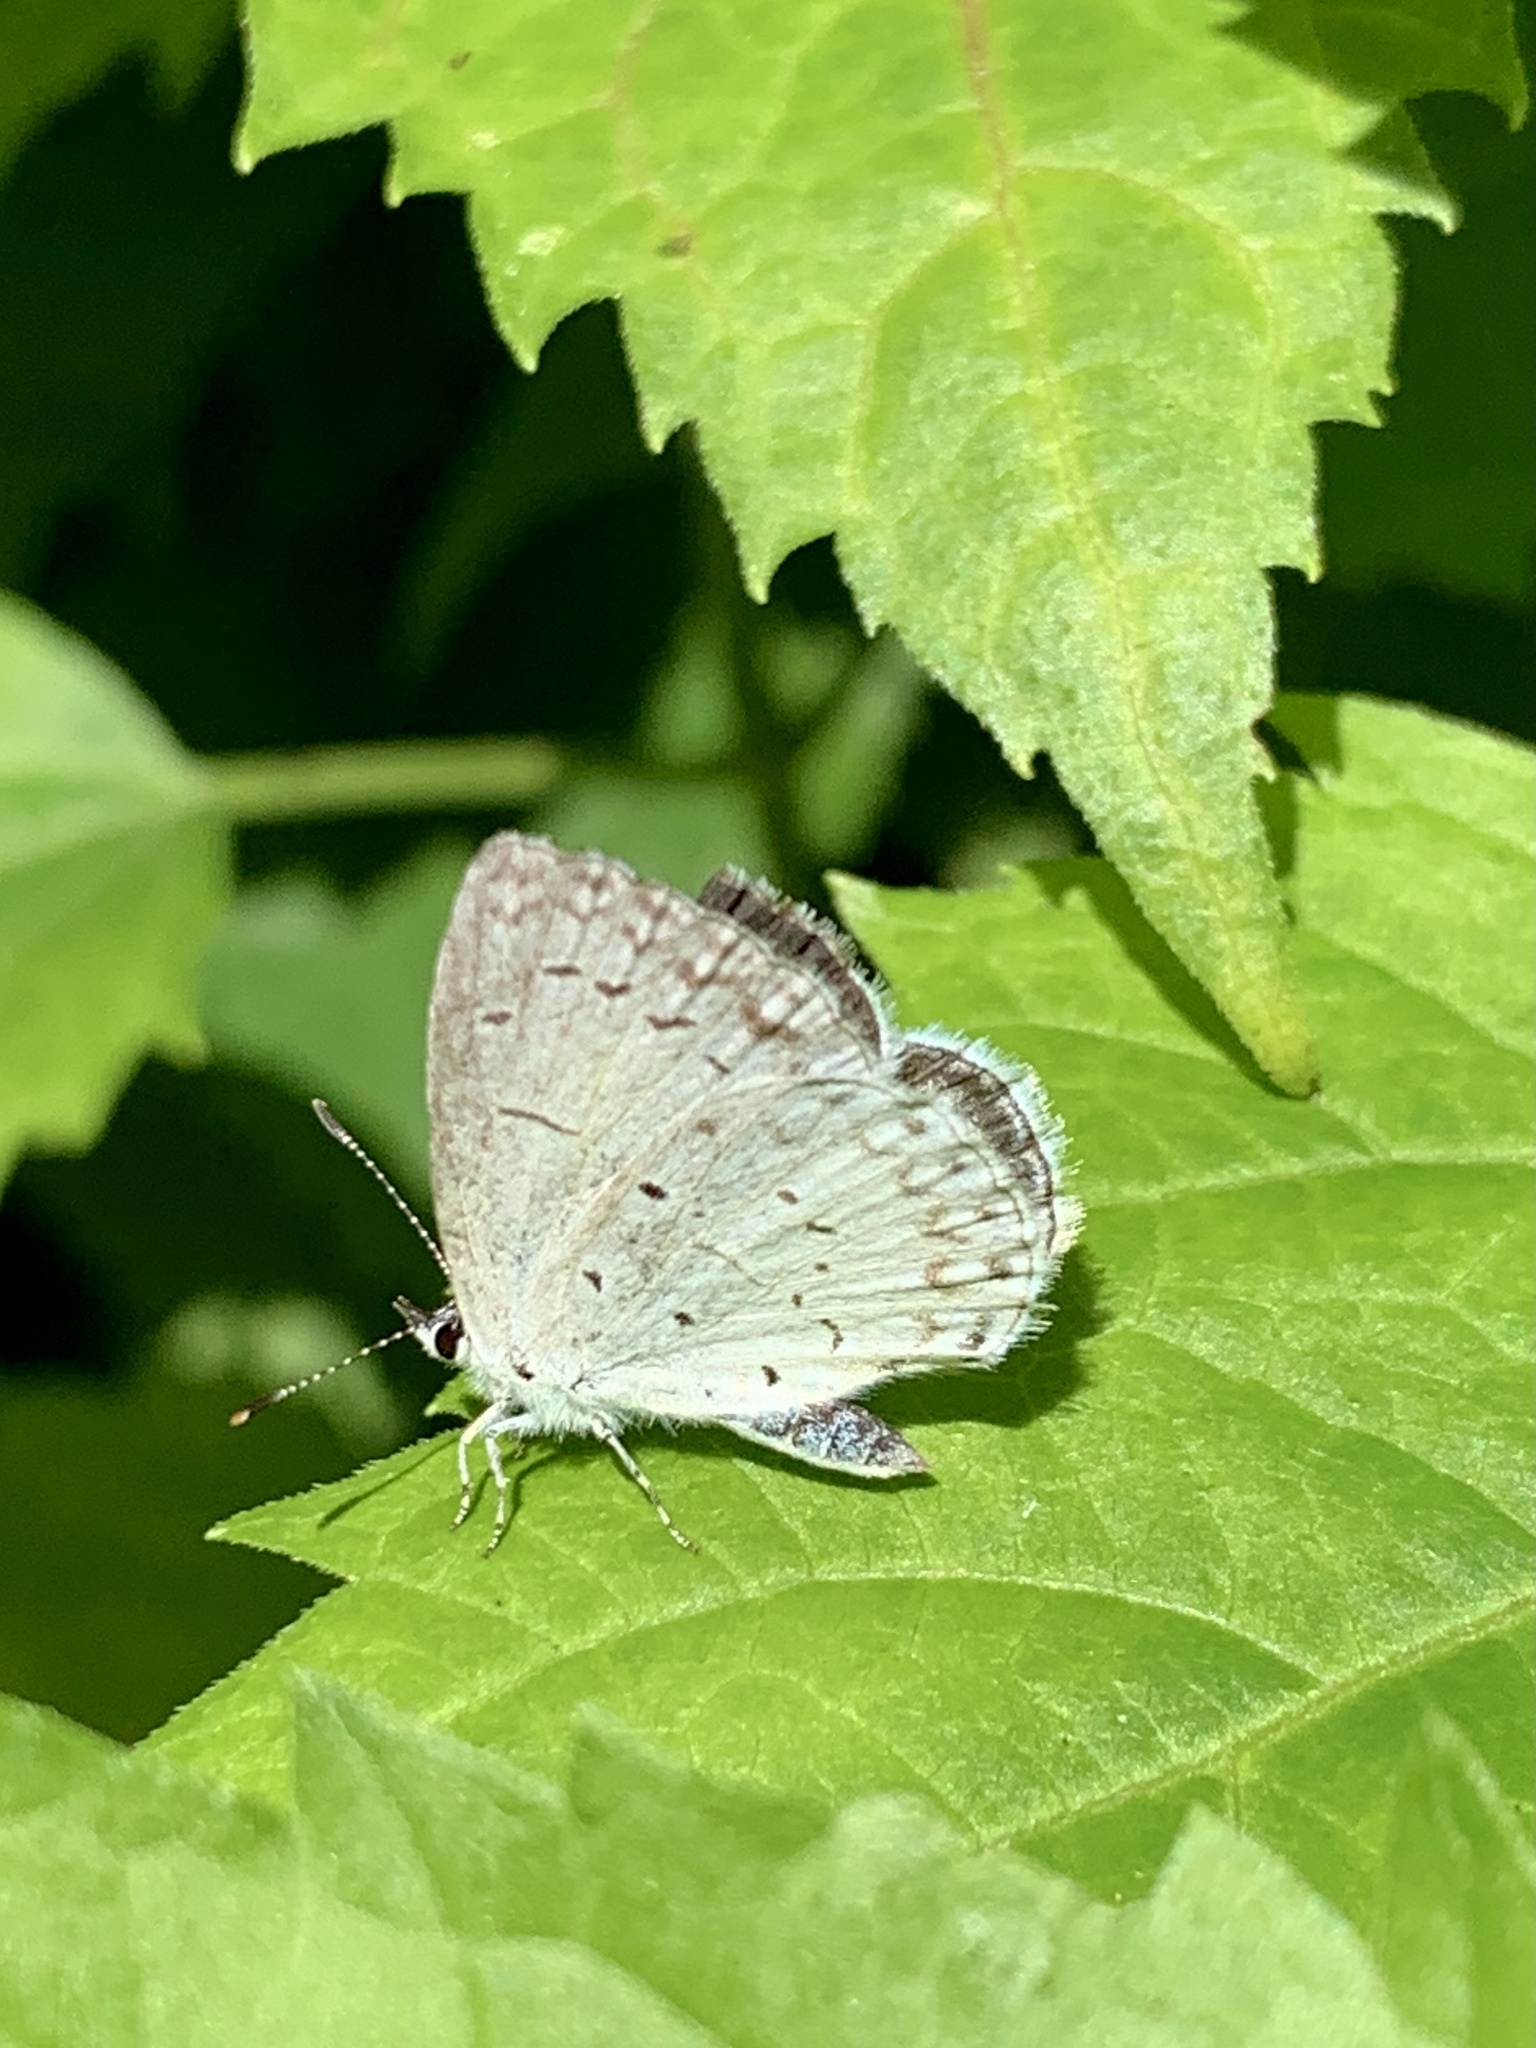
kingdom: Animalia
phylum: Arthropoda
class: Insecta
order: Lepidoptera
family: Lycaenidae
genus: Cyaniris
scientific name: Cyaniris neglecta
